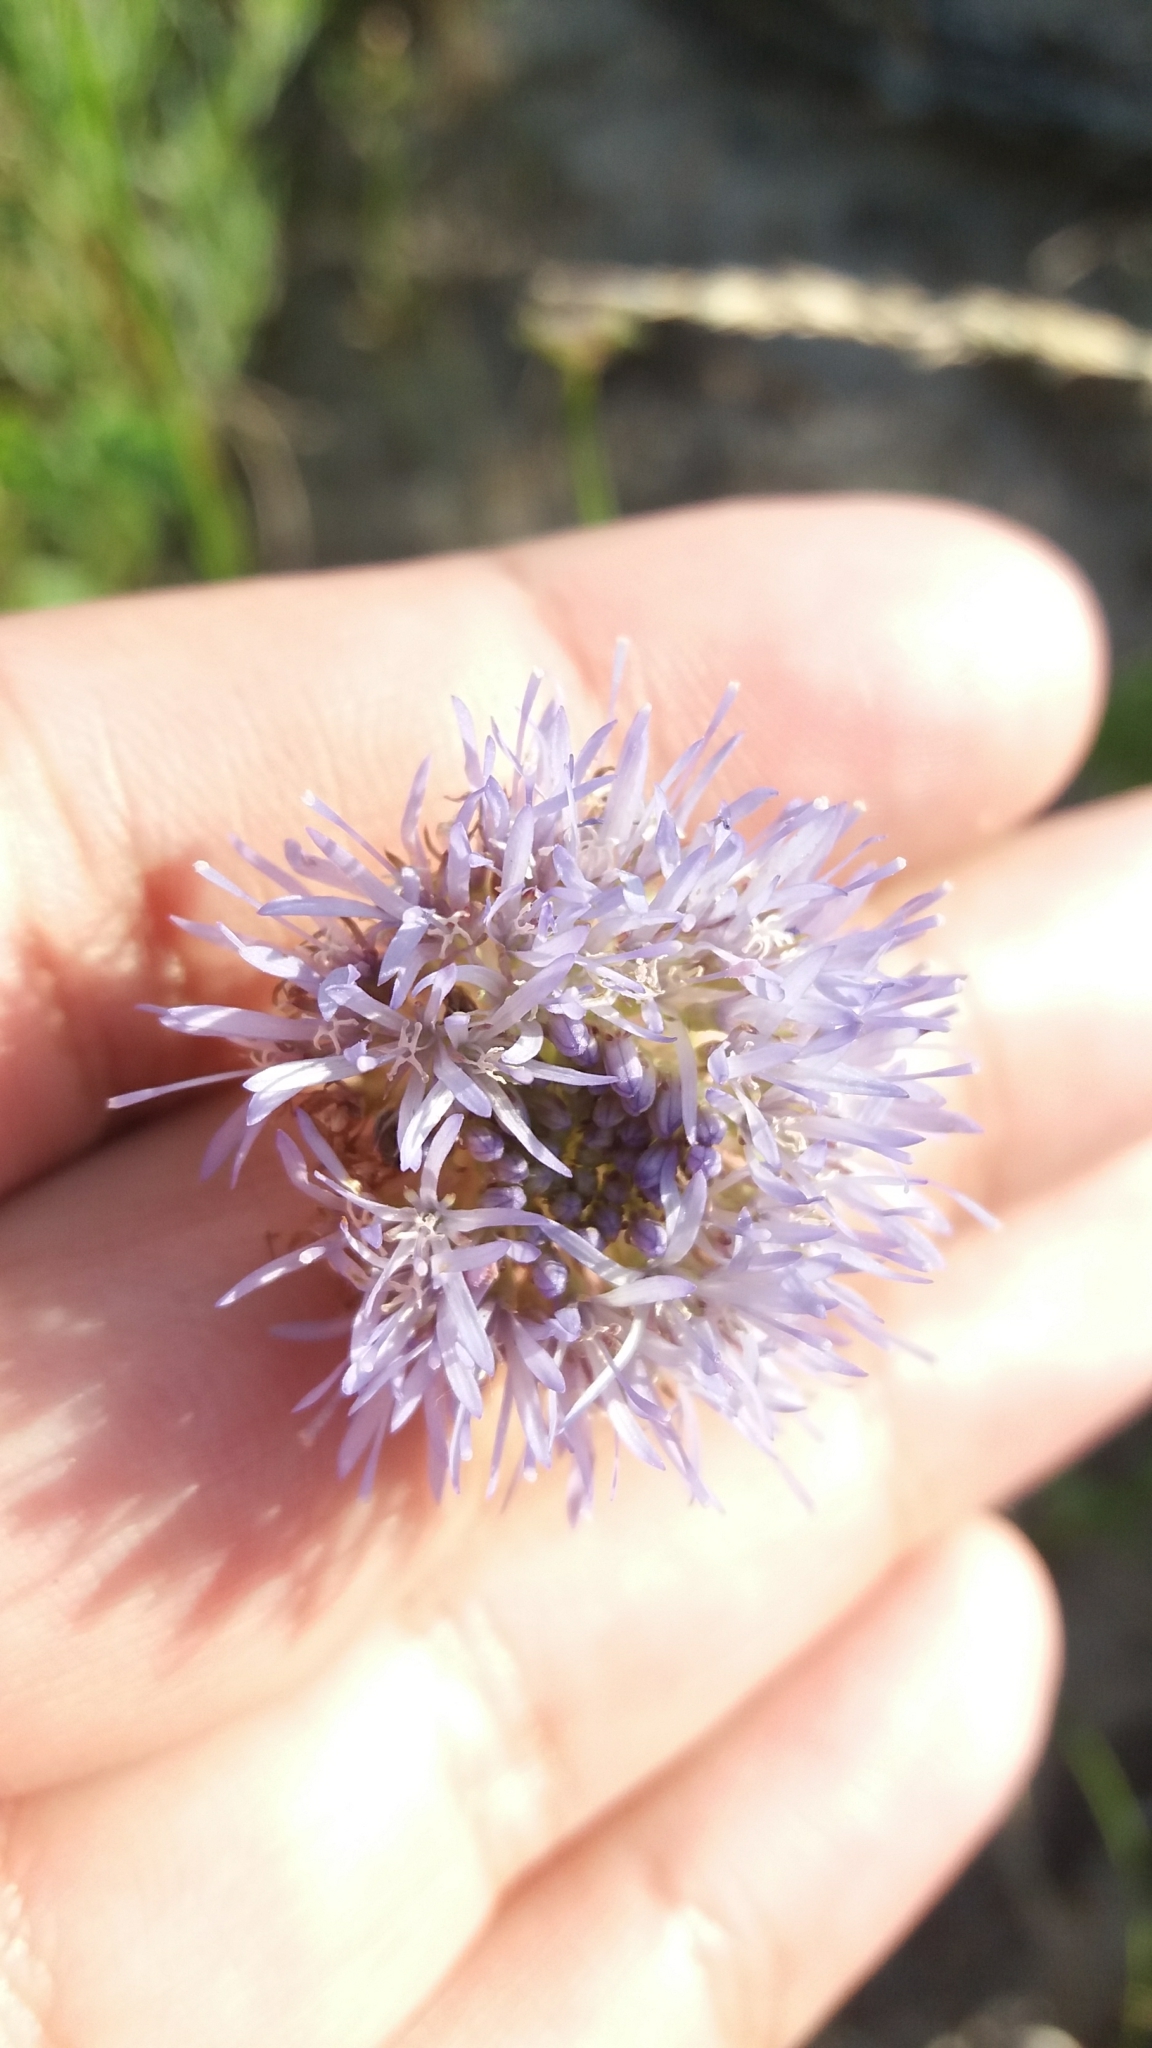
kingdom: Plantae
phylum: Tracheophyta
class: Magnoliopsida
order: Asterales
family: Campanulaceae
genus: Jasione
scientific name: Jasione montana
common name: Sheep's-bit
